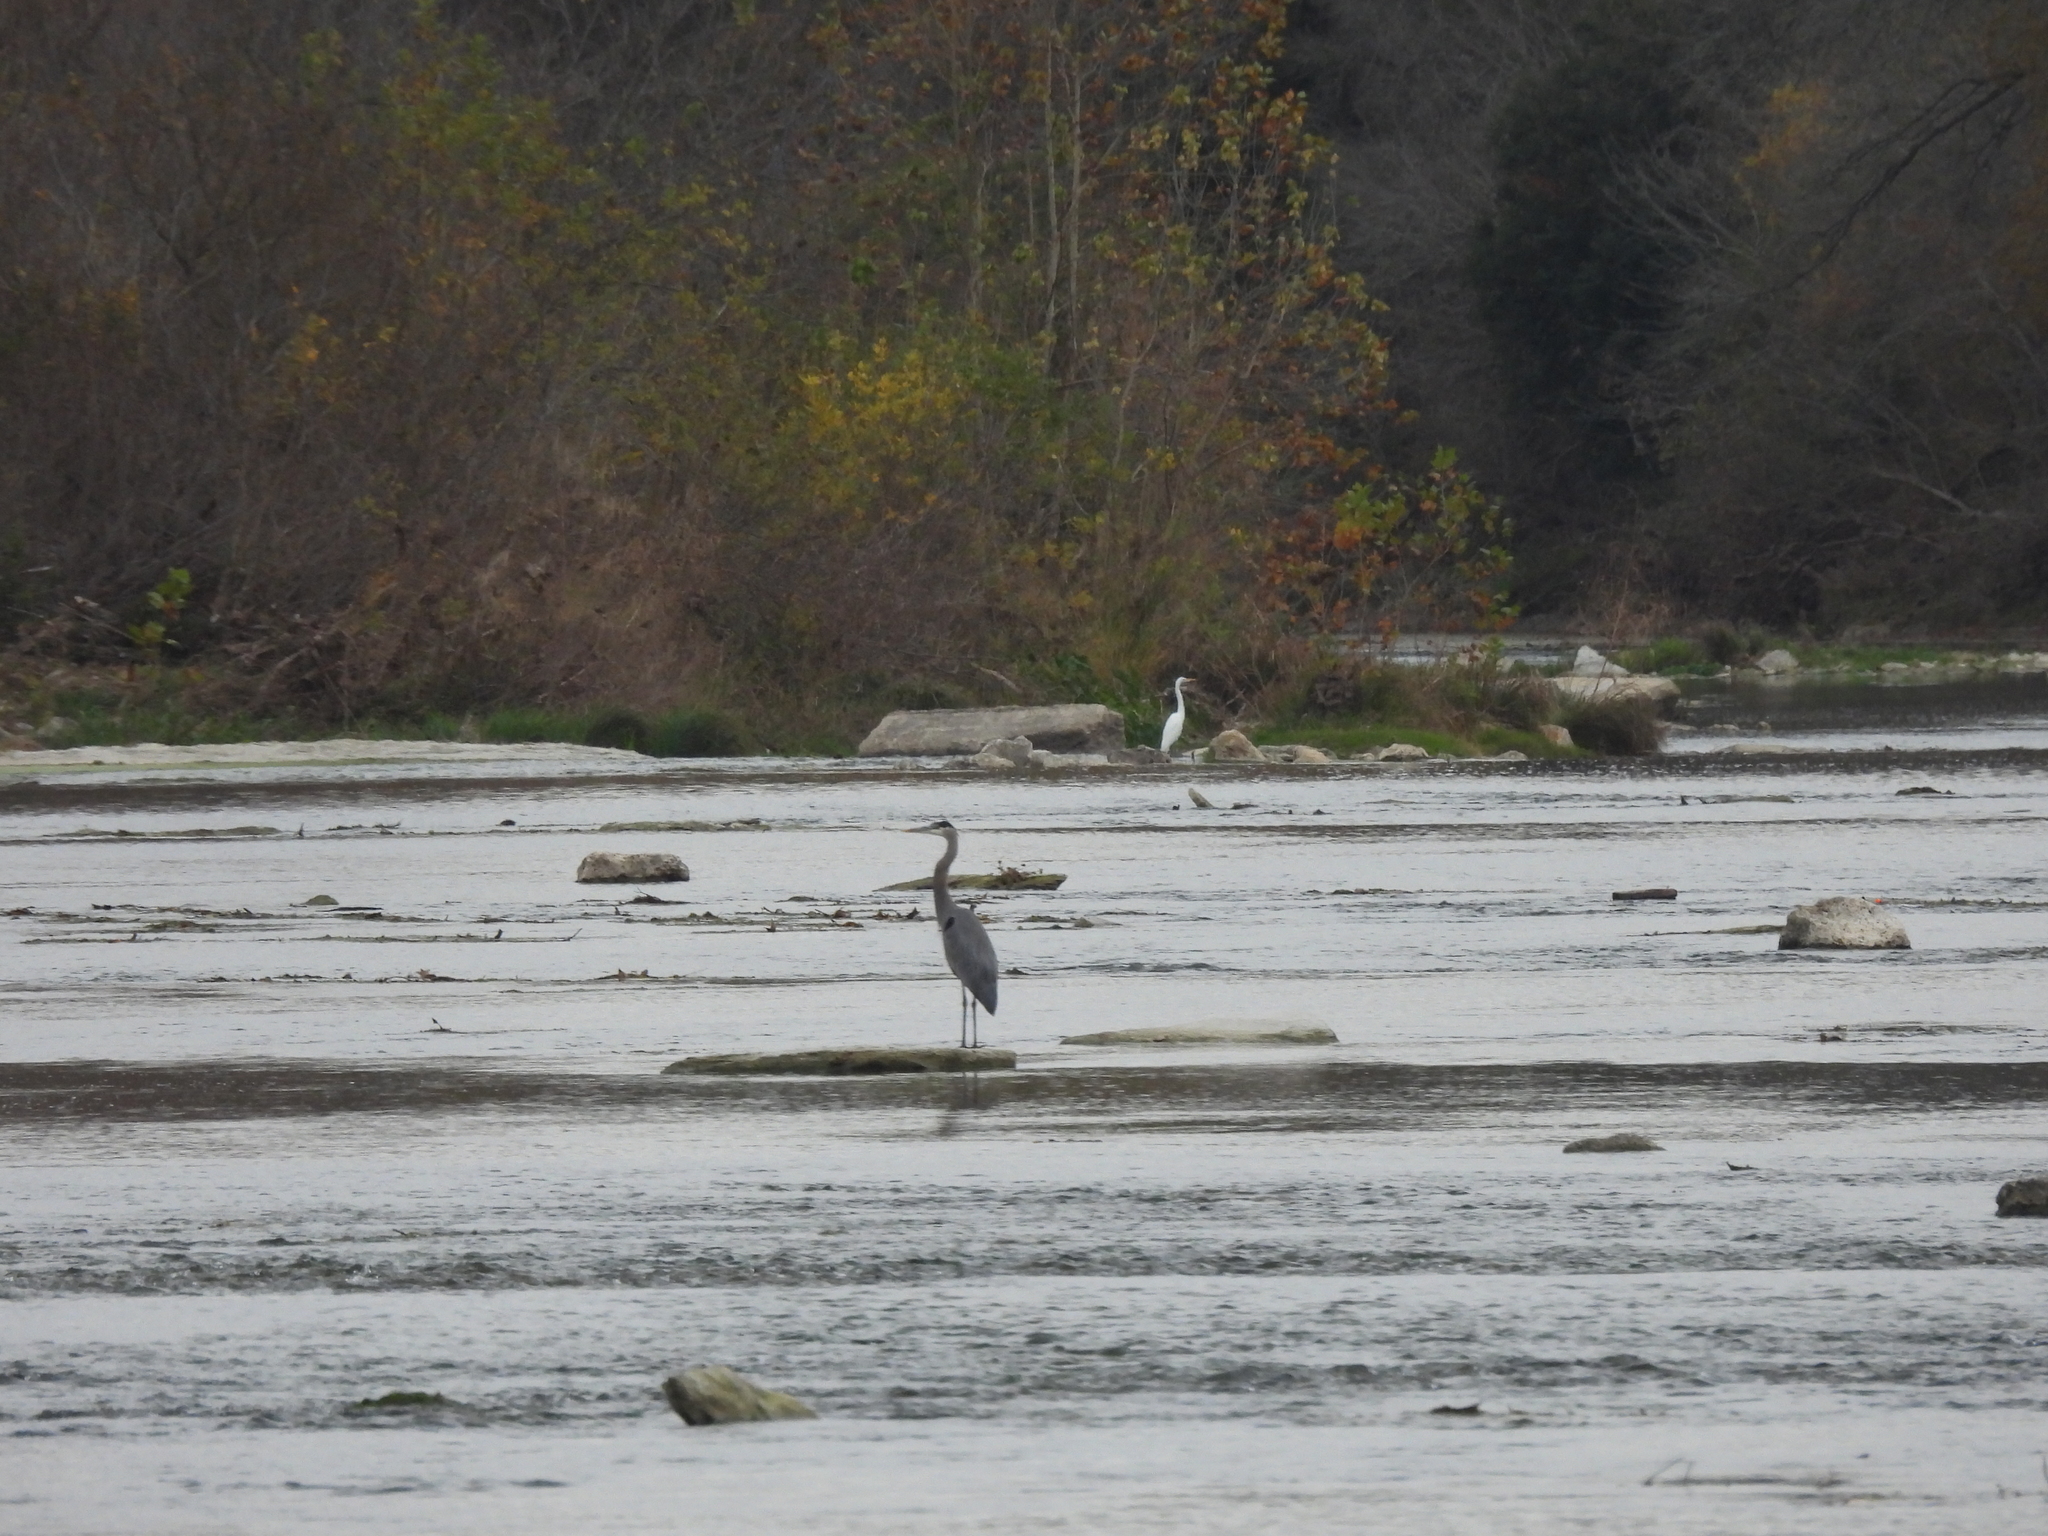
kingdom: Animalia
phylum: Chordata
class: Aves
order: Pelecaniformes
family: Ardeidae
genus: Ardea
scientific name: Ardea herodias
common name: Great blue heron
